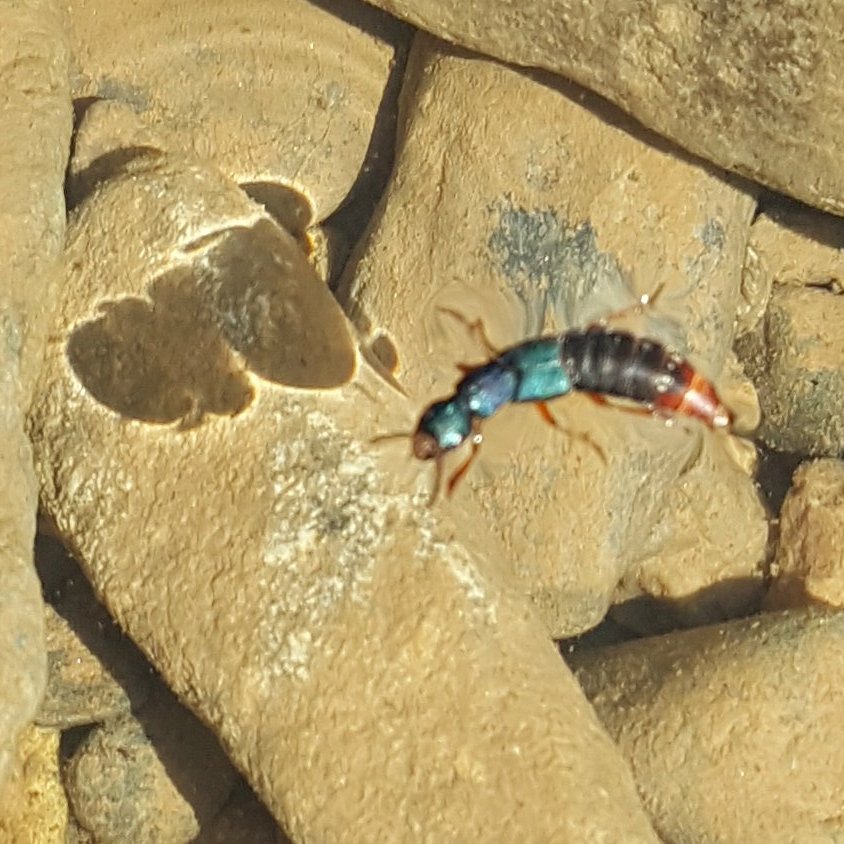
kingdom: Animalia
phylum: Arthropoda
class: Insecta
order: Coleoptera
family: Staphylinidae
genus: Dinothenarus
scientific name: Dinothenarus saphyrinus
